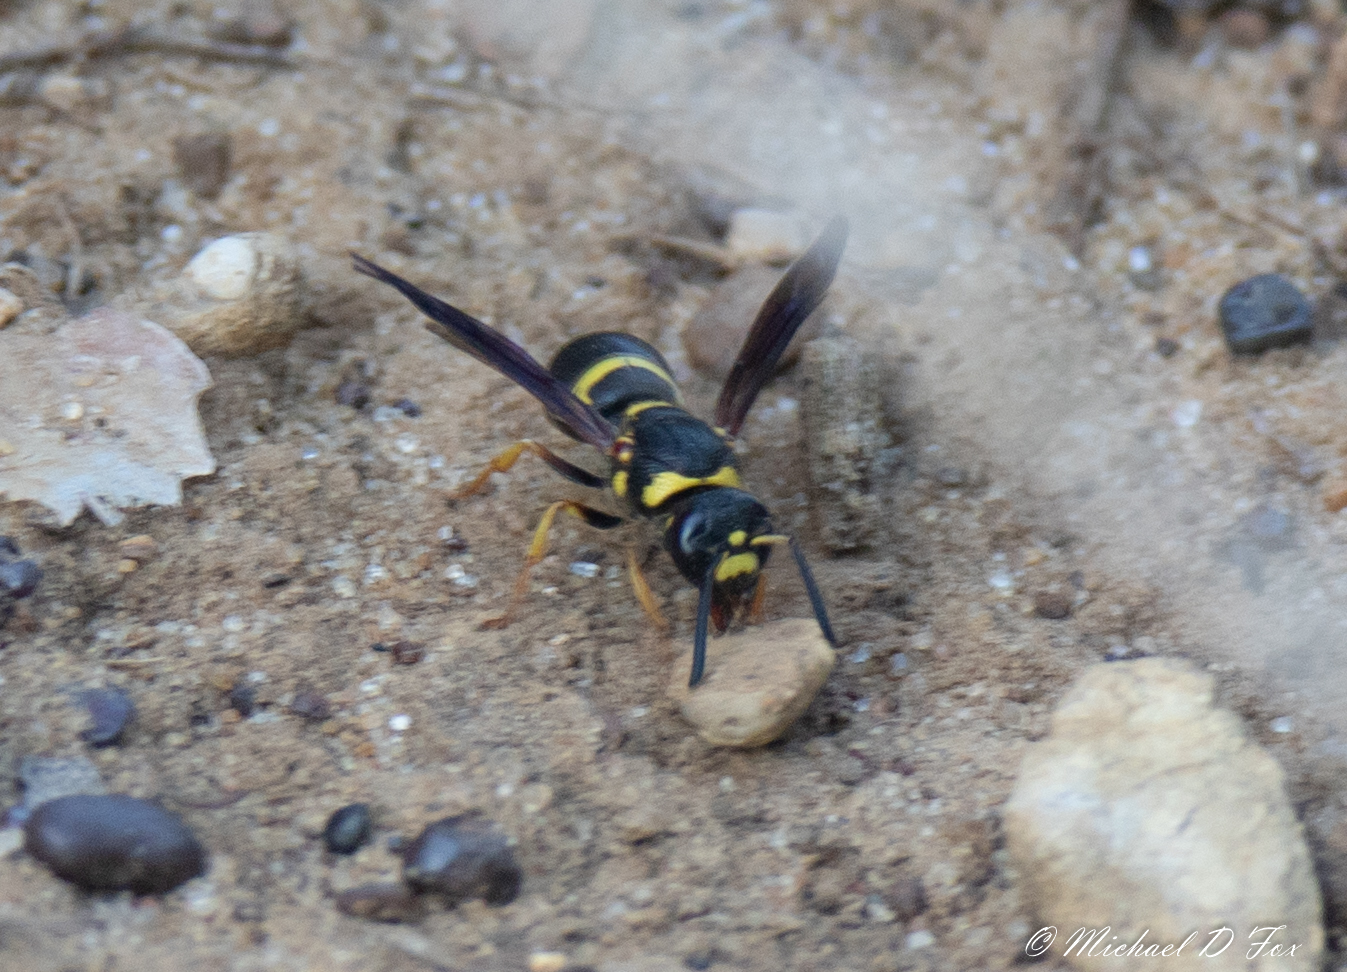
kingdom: Animalia
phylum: Arthropoda
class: Insecta
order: Hymenoptera
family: Eumenidae
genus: Euodynerus
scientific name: Euodynerus foraminatus
